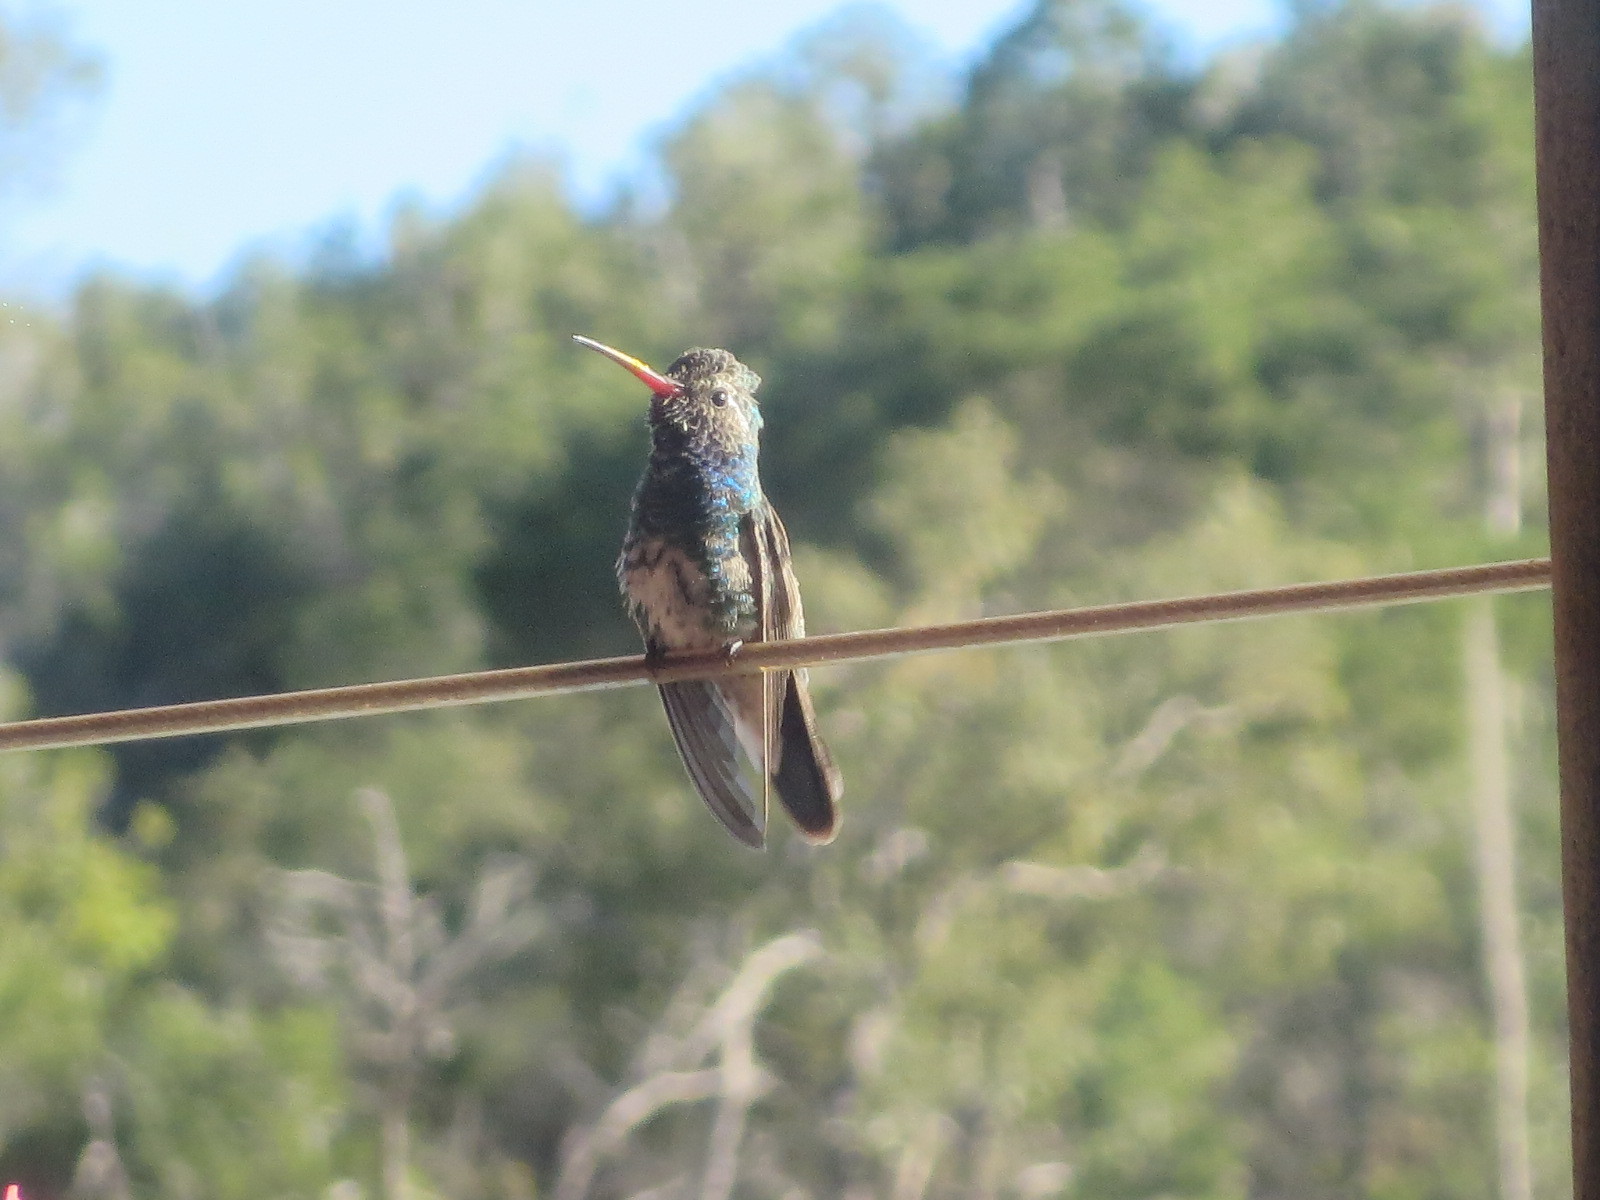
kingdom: Animalia
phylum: Chordata
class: Aves
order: Apodiformes
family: Trochilidae
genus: Cynanthus
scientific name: Cynanthus latirostris
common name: Broad-billed hummingbird
